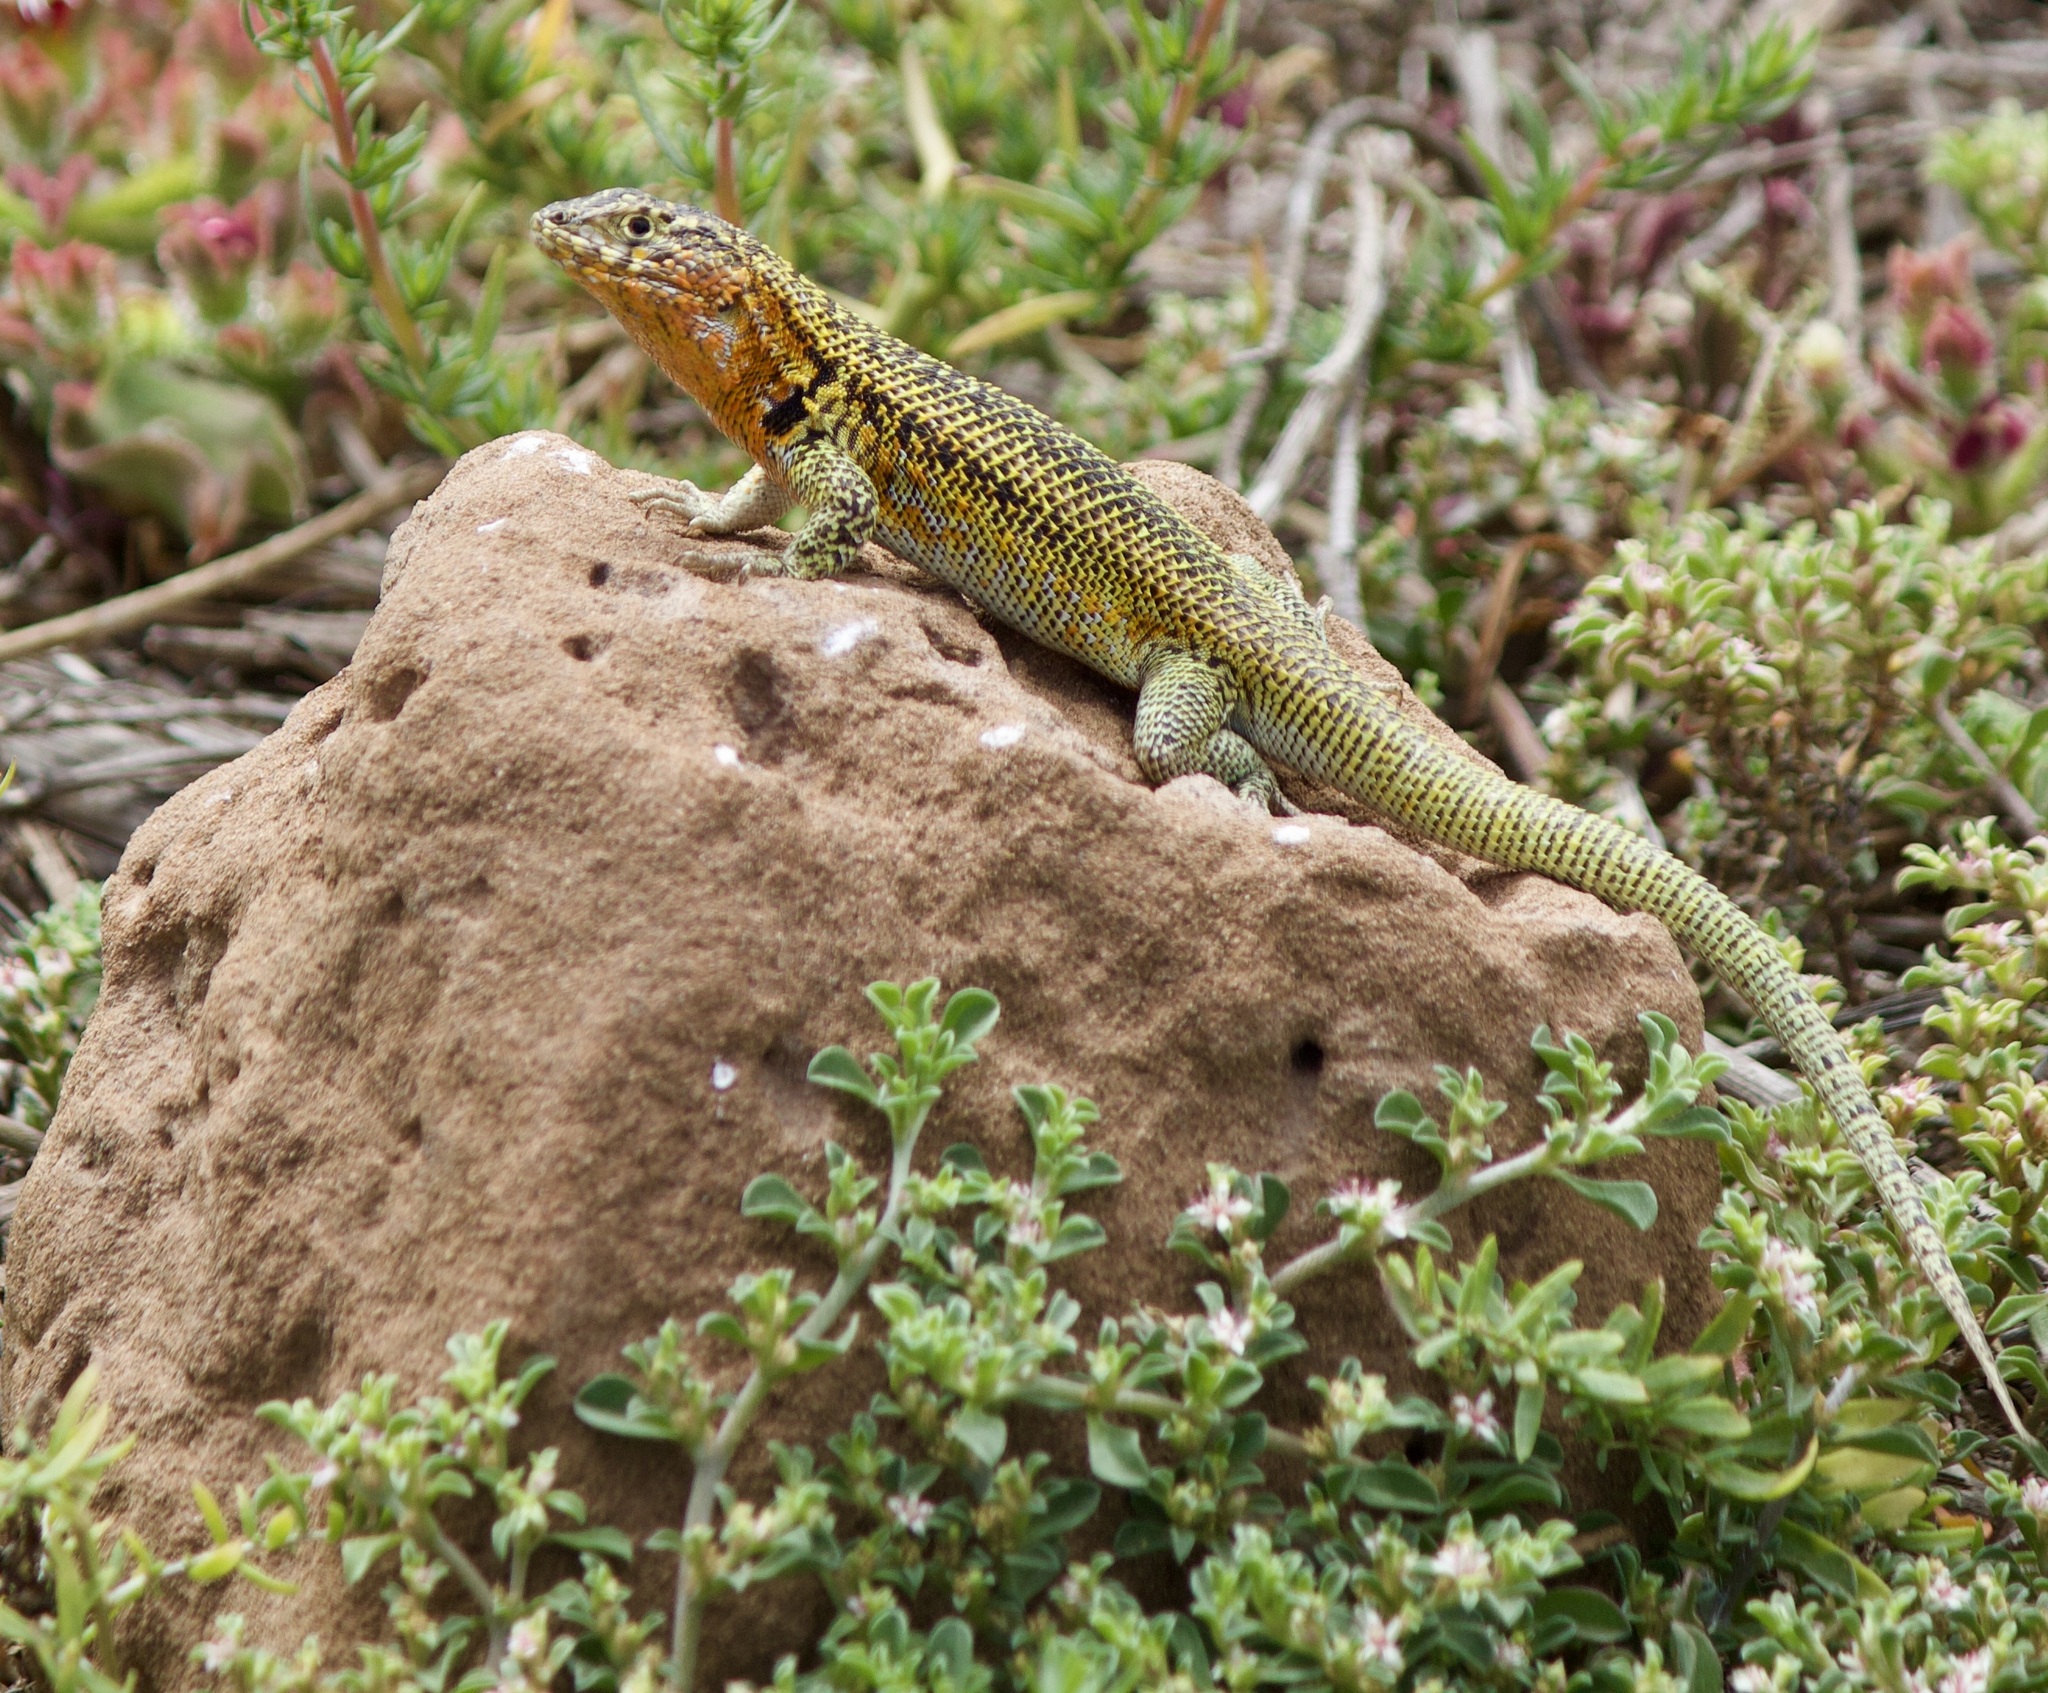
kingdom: Animalia
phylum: Chordata
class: Squamata
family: Liolaemidae
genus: Liolaemus
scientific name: Liolaemus zapallarensis
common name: Zapallaren tree iguana
